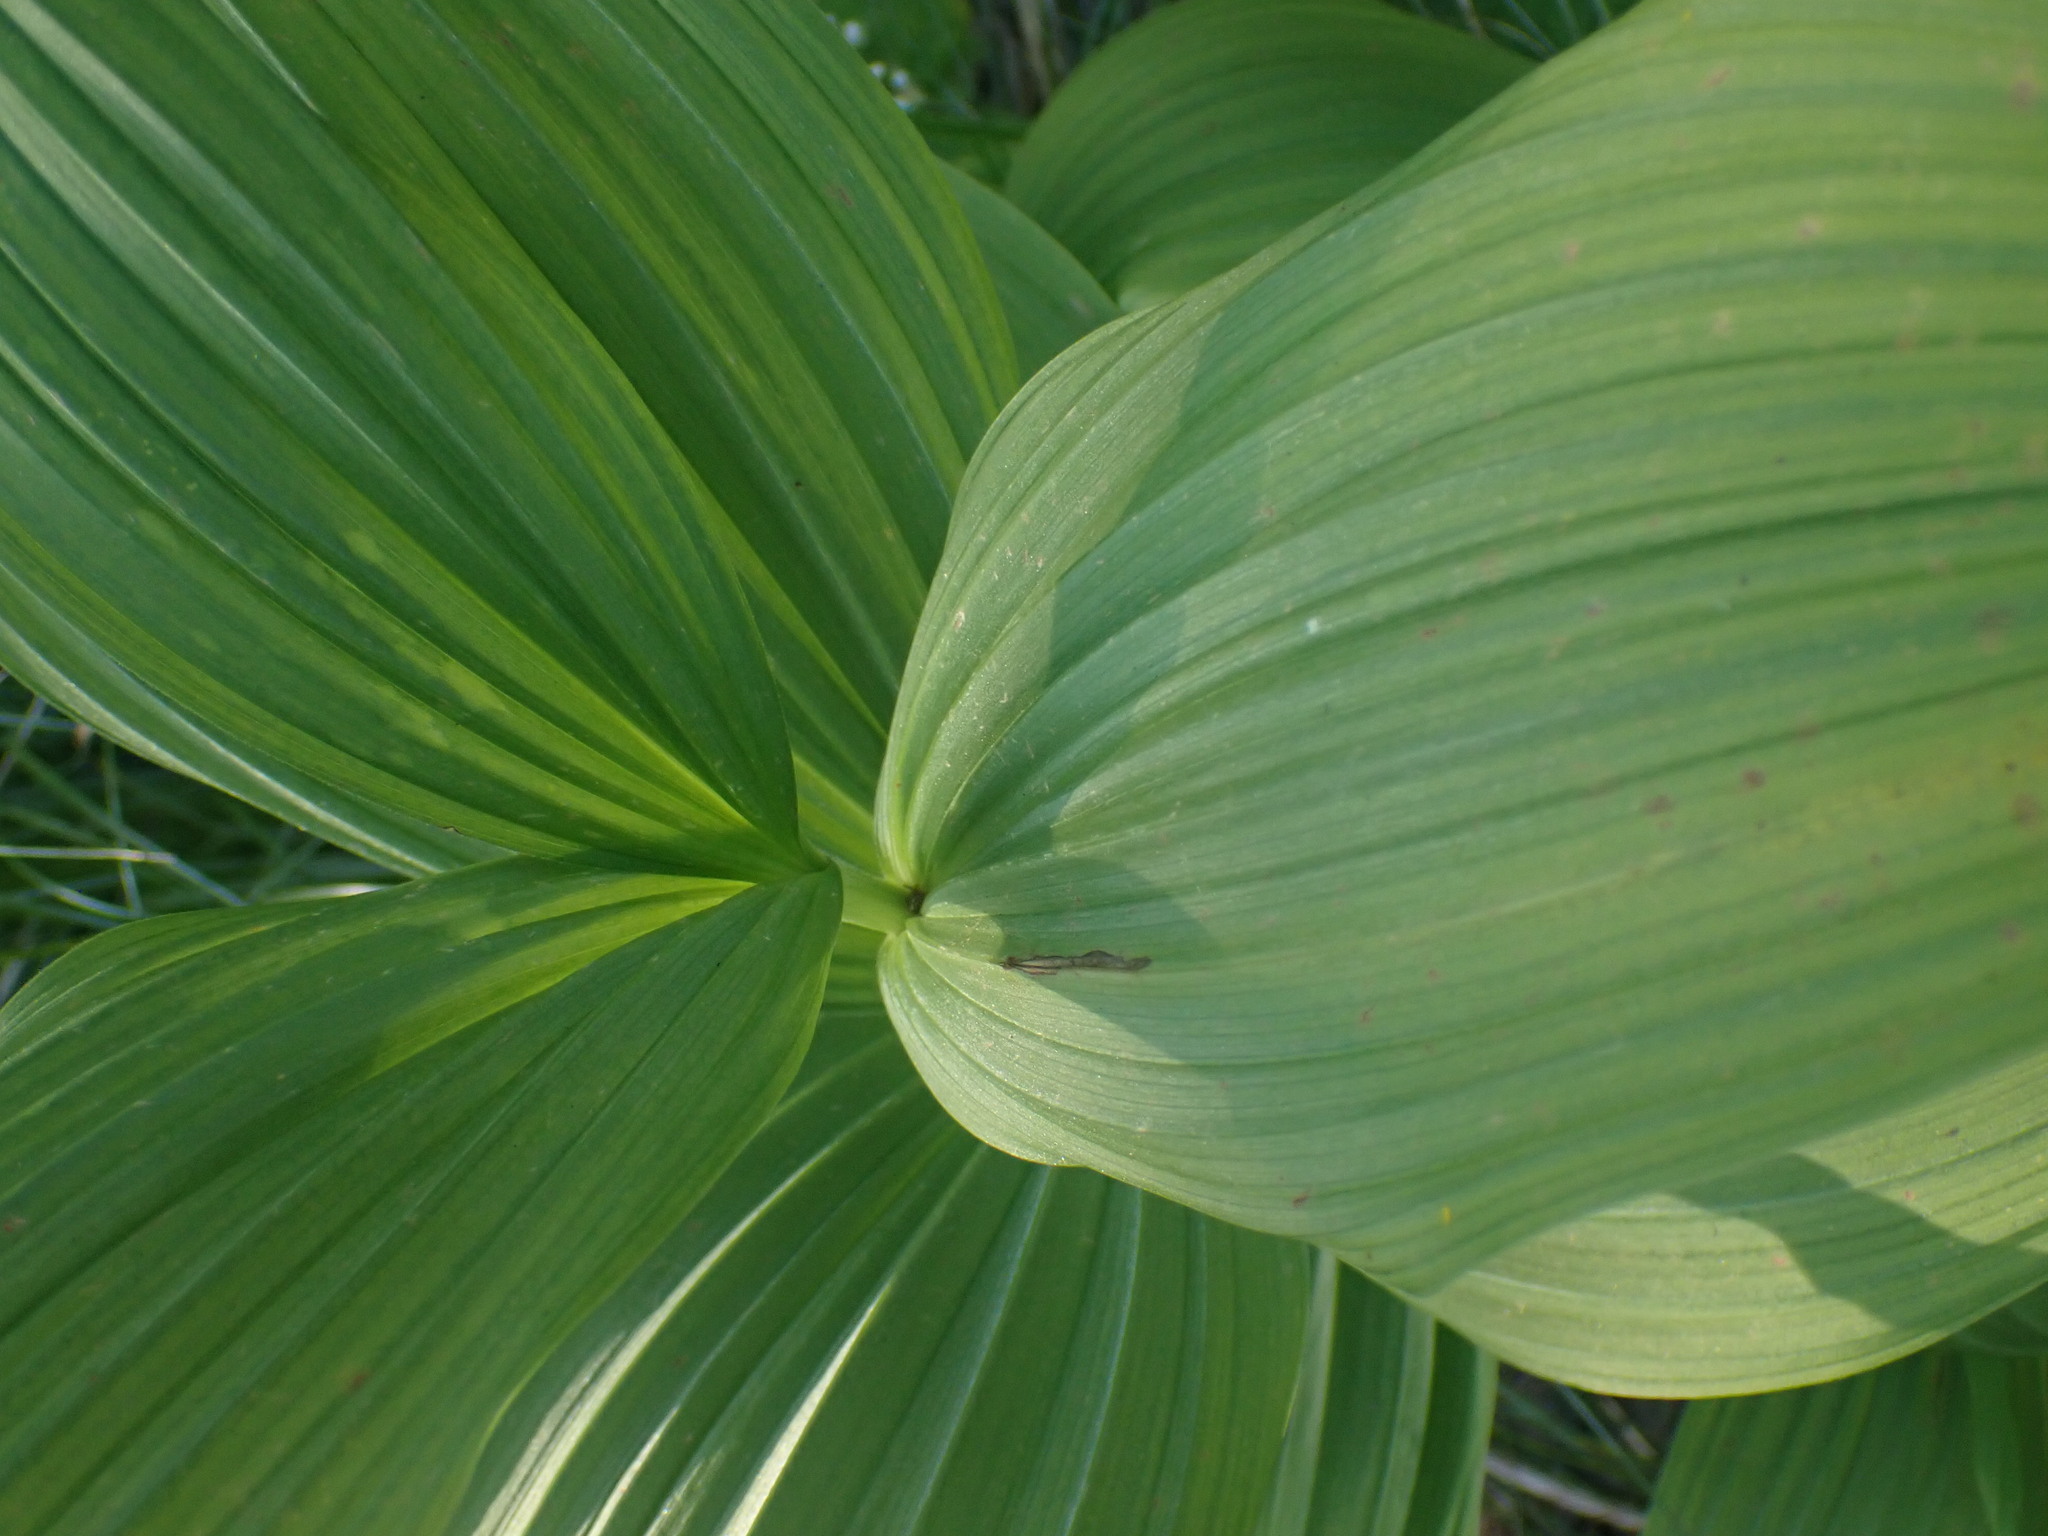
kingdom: Plantae
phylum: Tracheophyta
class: Liliopsida
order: Liliales
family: Melanthiaceae
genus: Veratrum
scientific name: Veratrum viride
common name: American false hellebore
